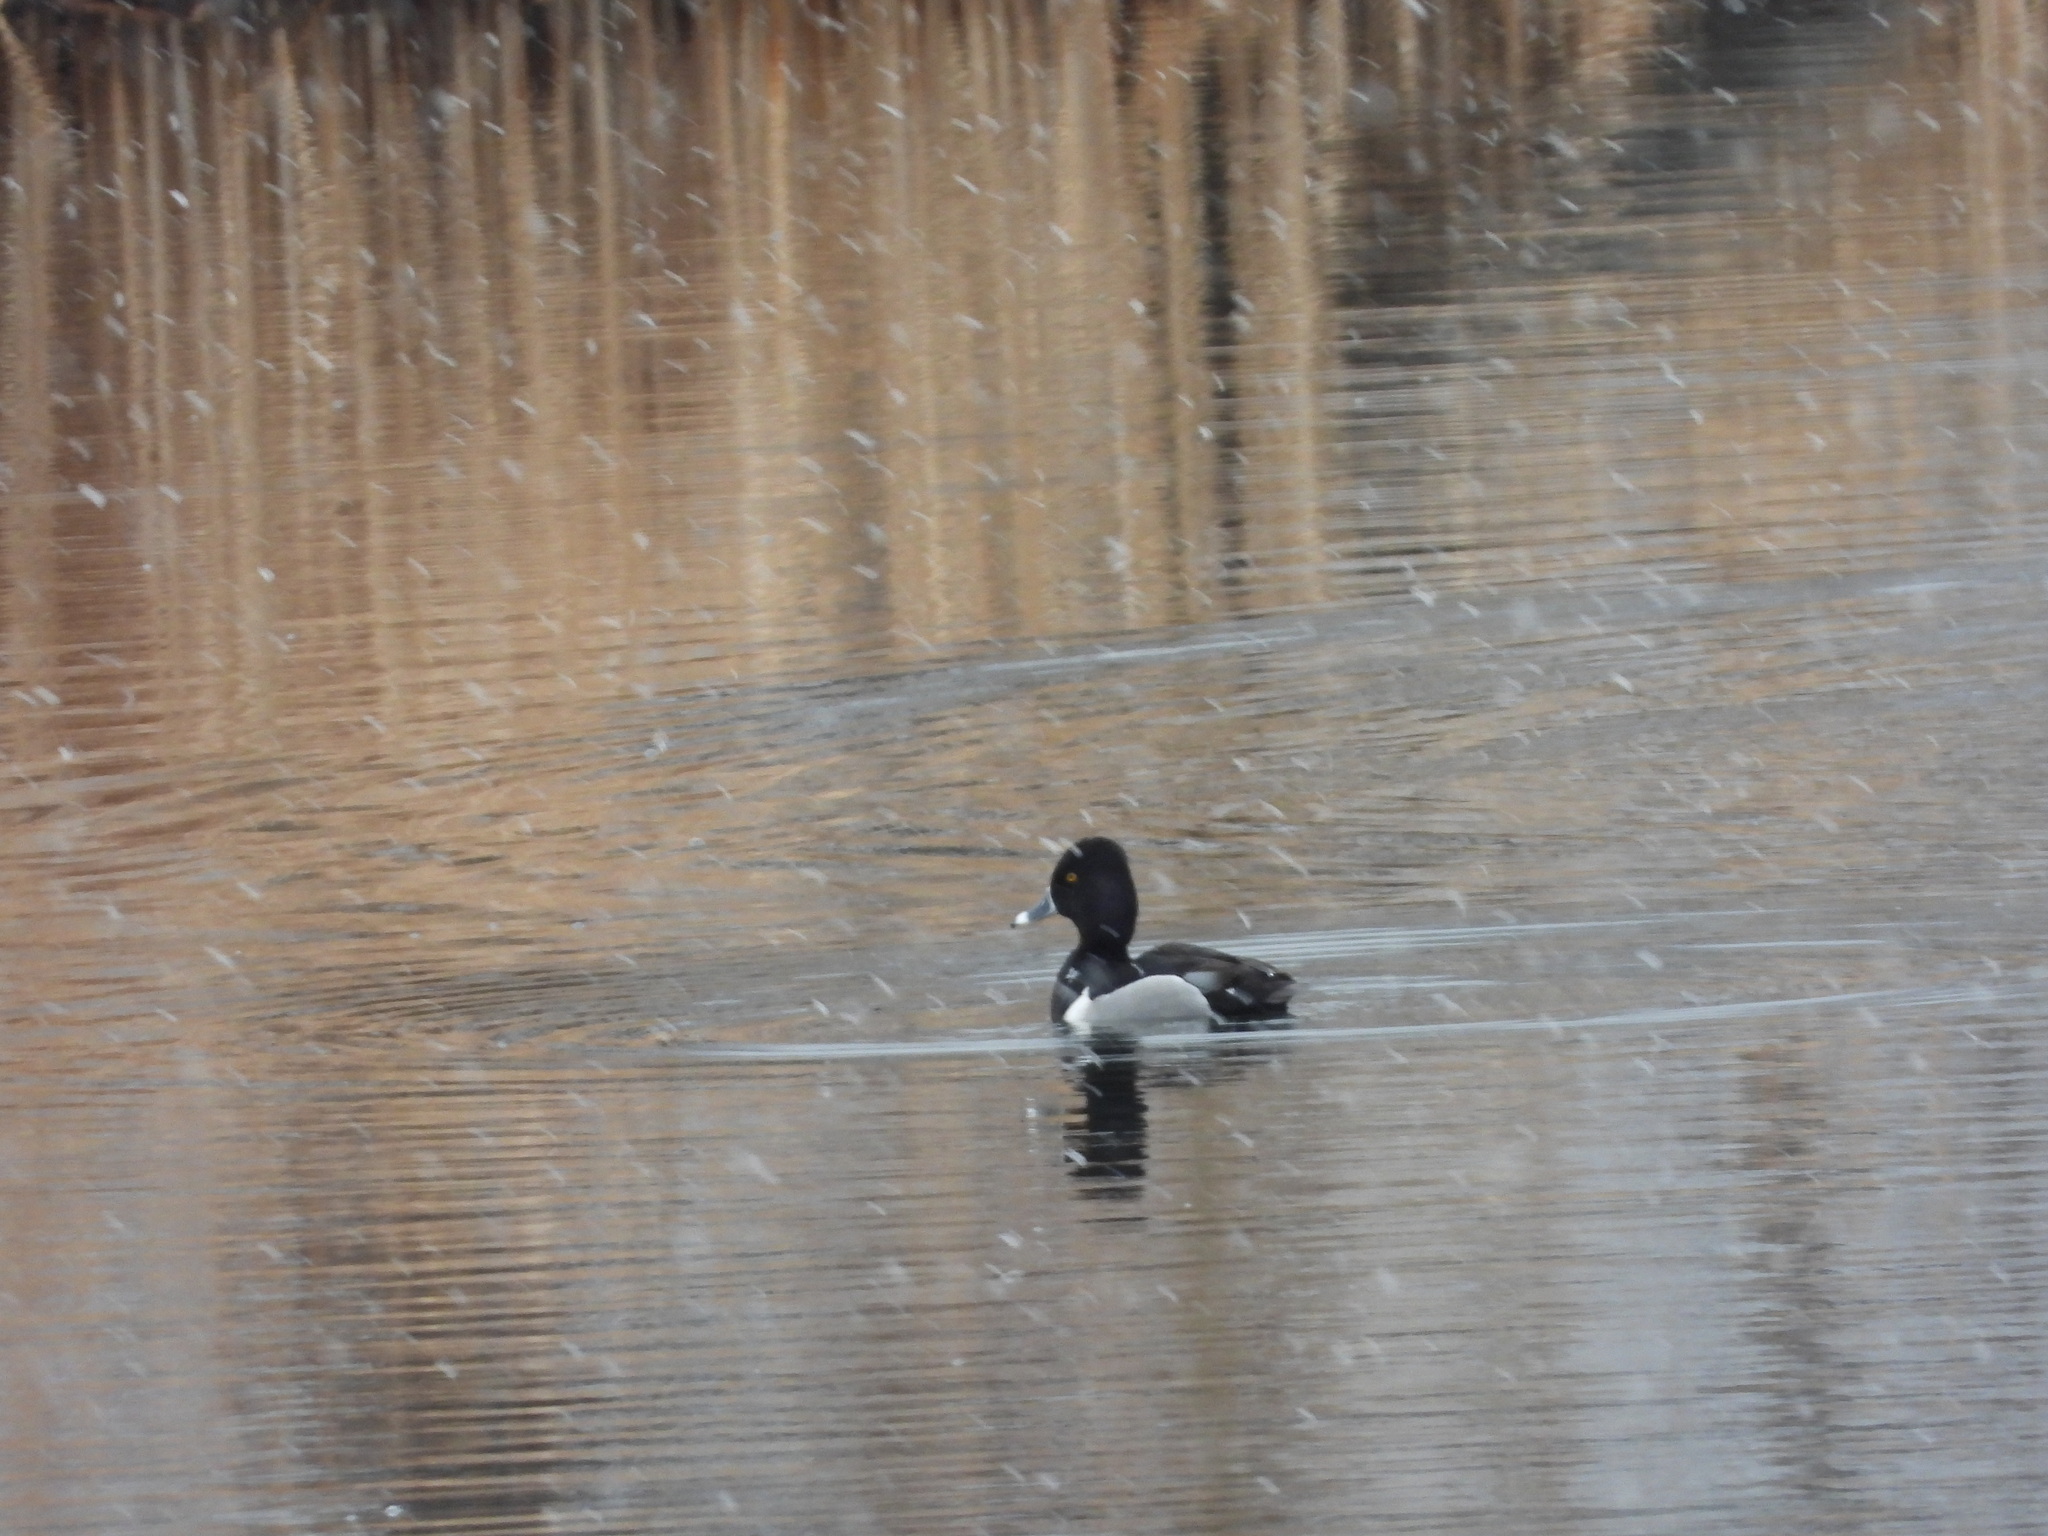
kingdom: Animalia
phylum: Chordata
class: Aves
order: Anseriformes
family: Anatidae
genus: Aythya
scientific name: Aythya collaris
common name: Ring-necked duck
